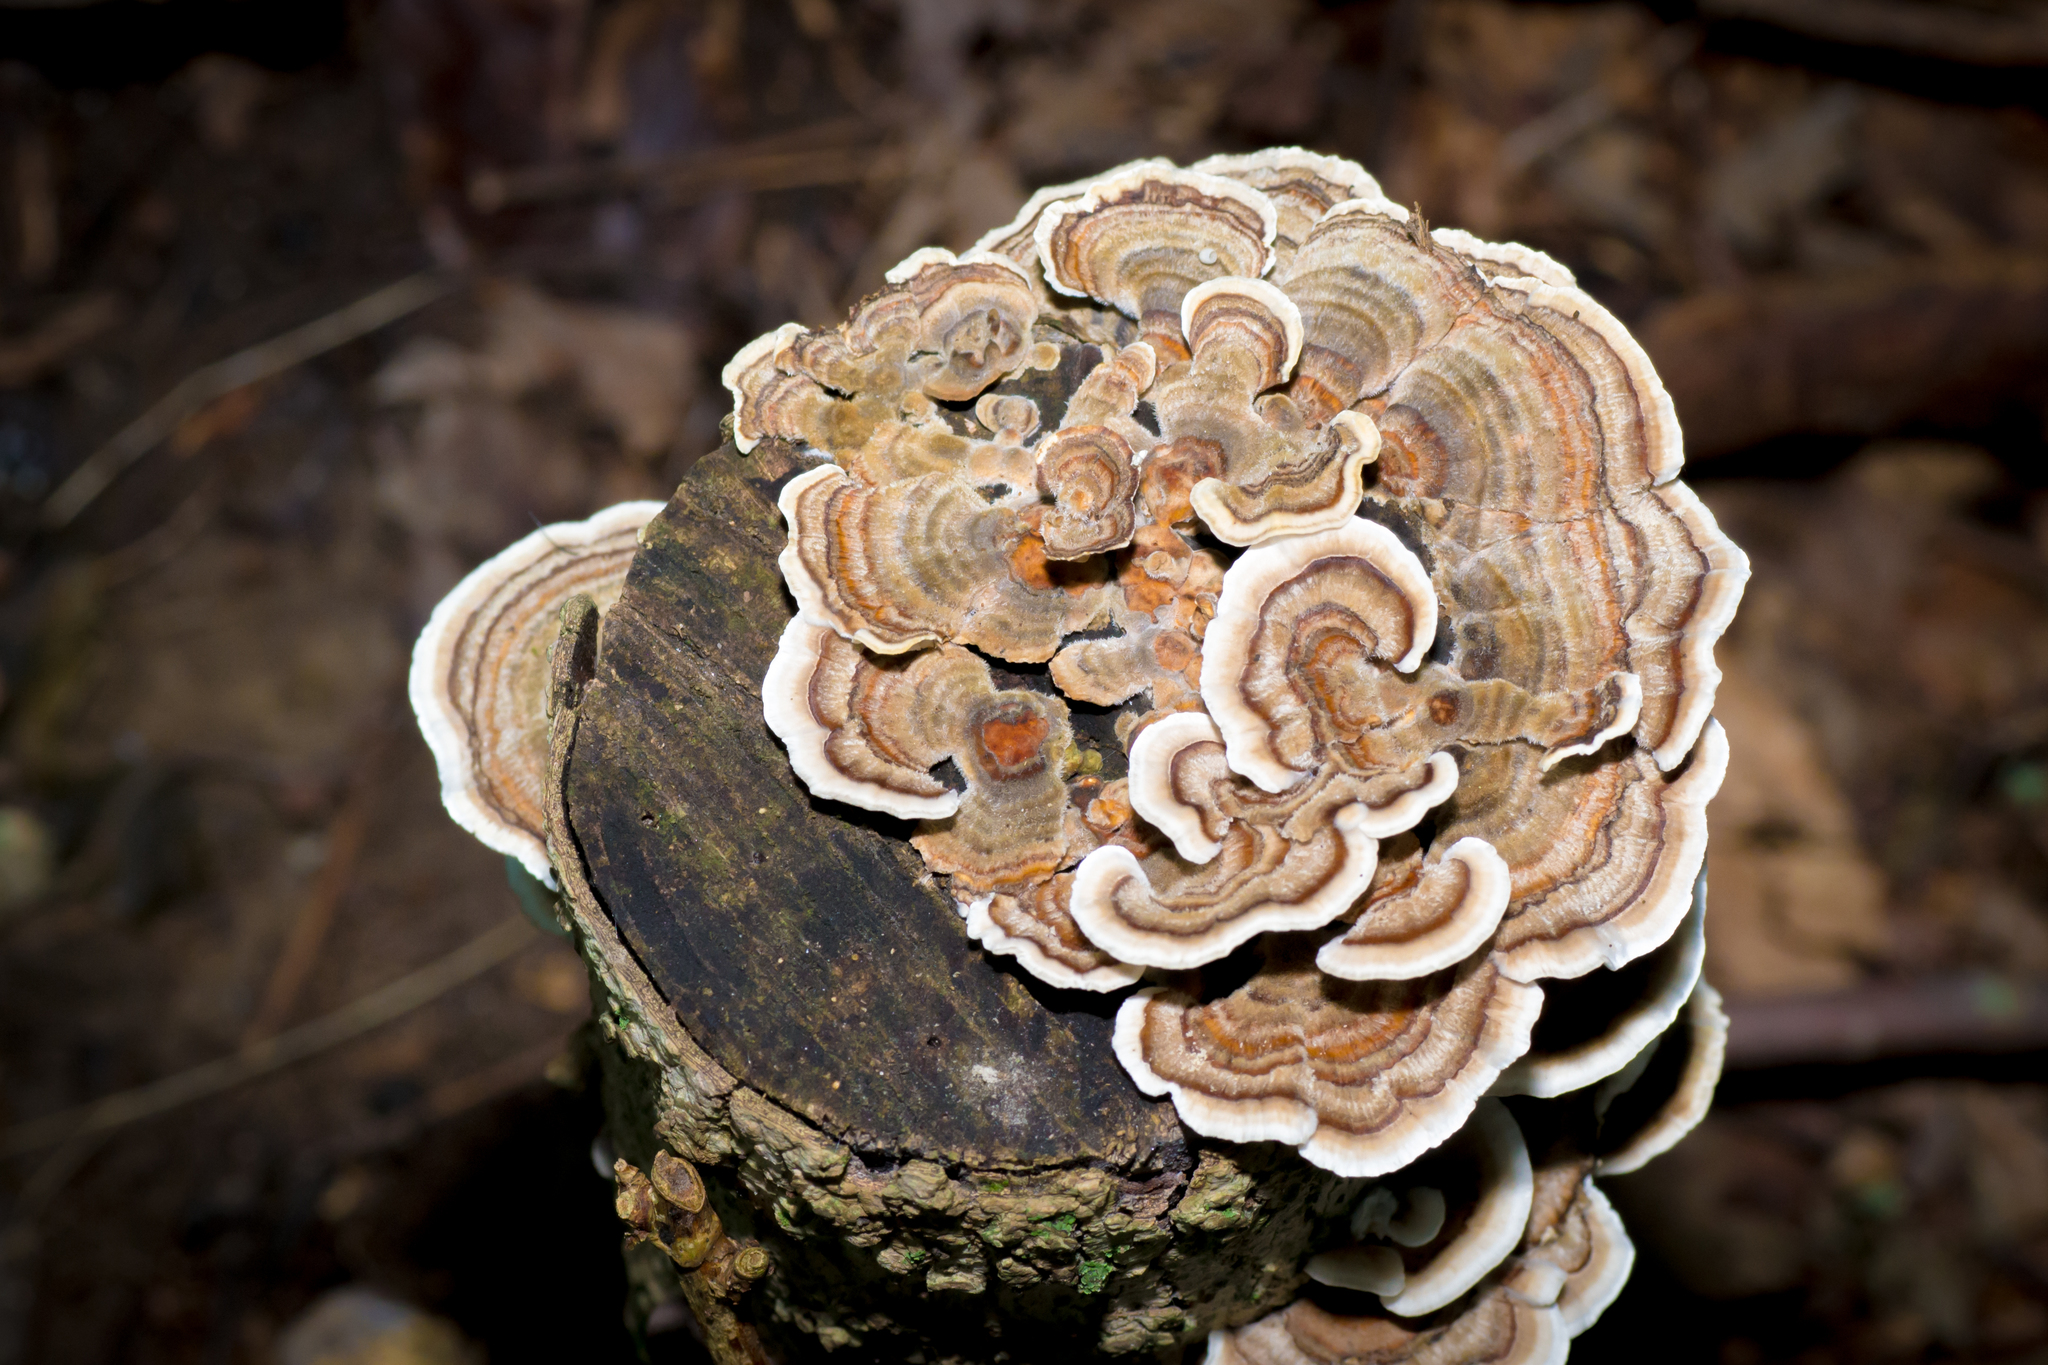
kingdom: Fungi
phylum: Basidiomycota
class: Agaricomycetes
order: Polyporales
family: Polyporaceae
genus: Trametes
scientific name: Trametes versicolor
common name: Turkeytail
